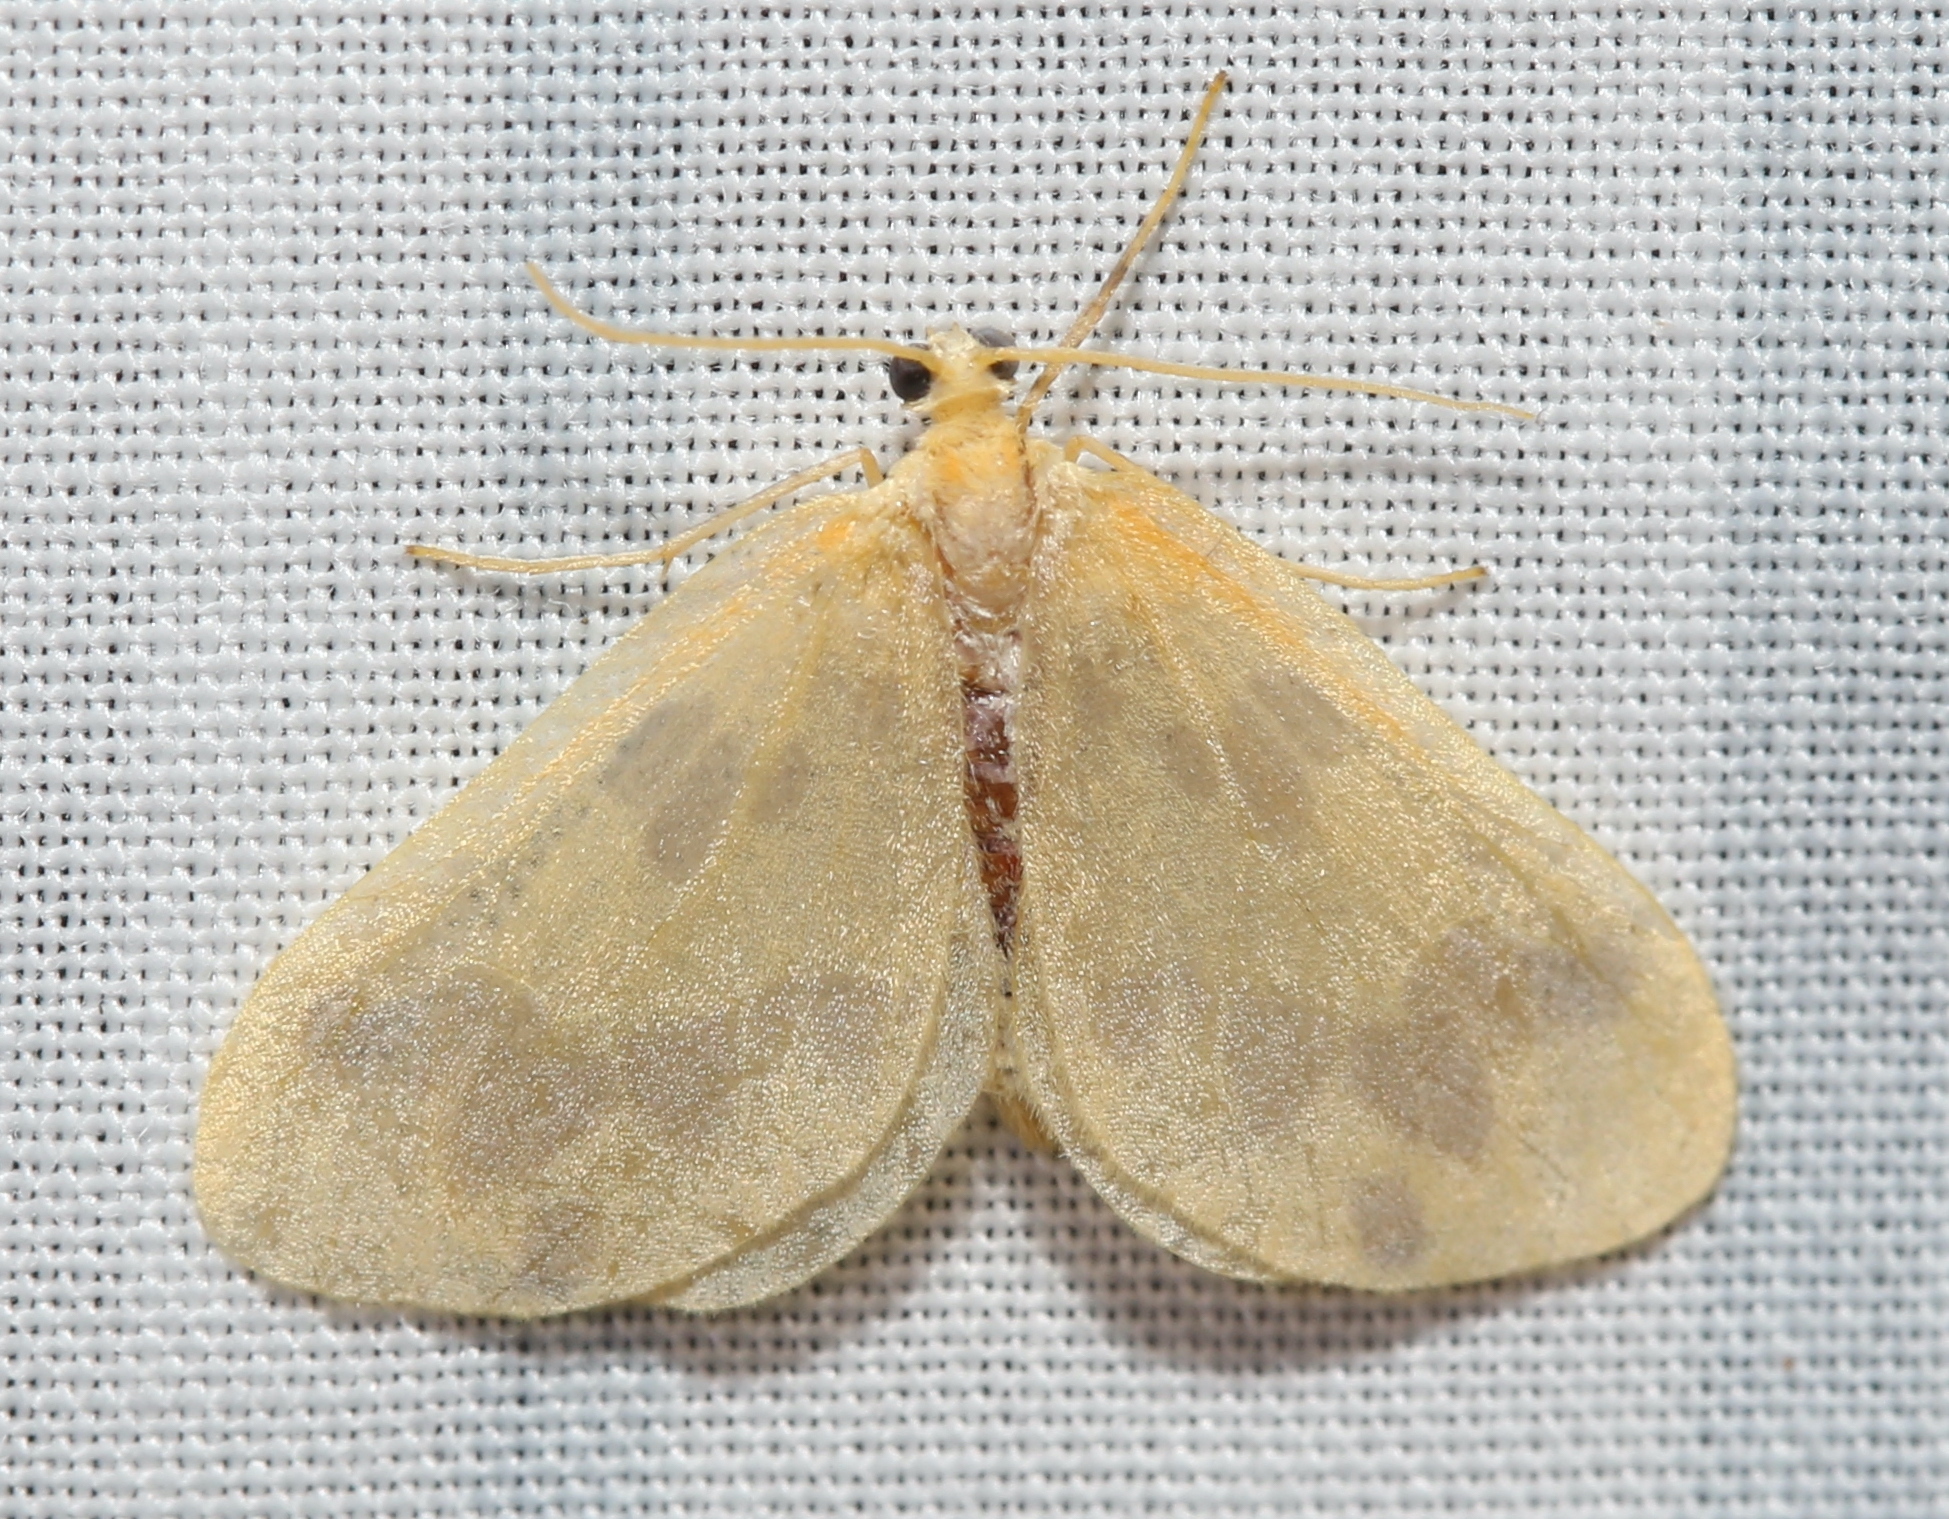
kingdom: Animalia
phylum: Arthropoda
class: Insecta
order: Lepidoptera
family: Geometridae
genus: Eubaphe
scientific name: Eubaphe mendica
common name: Beggar
